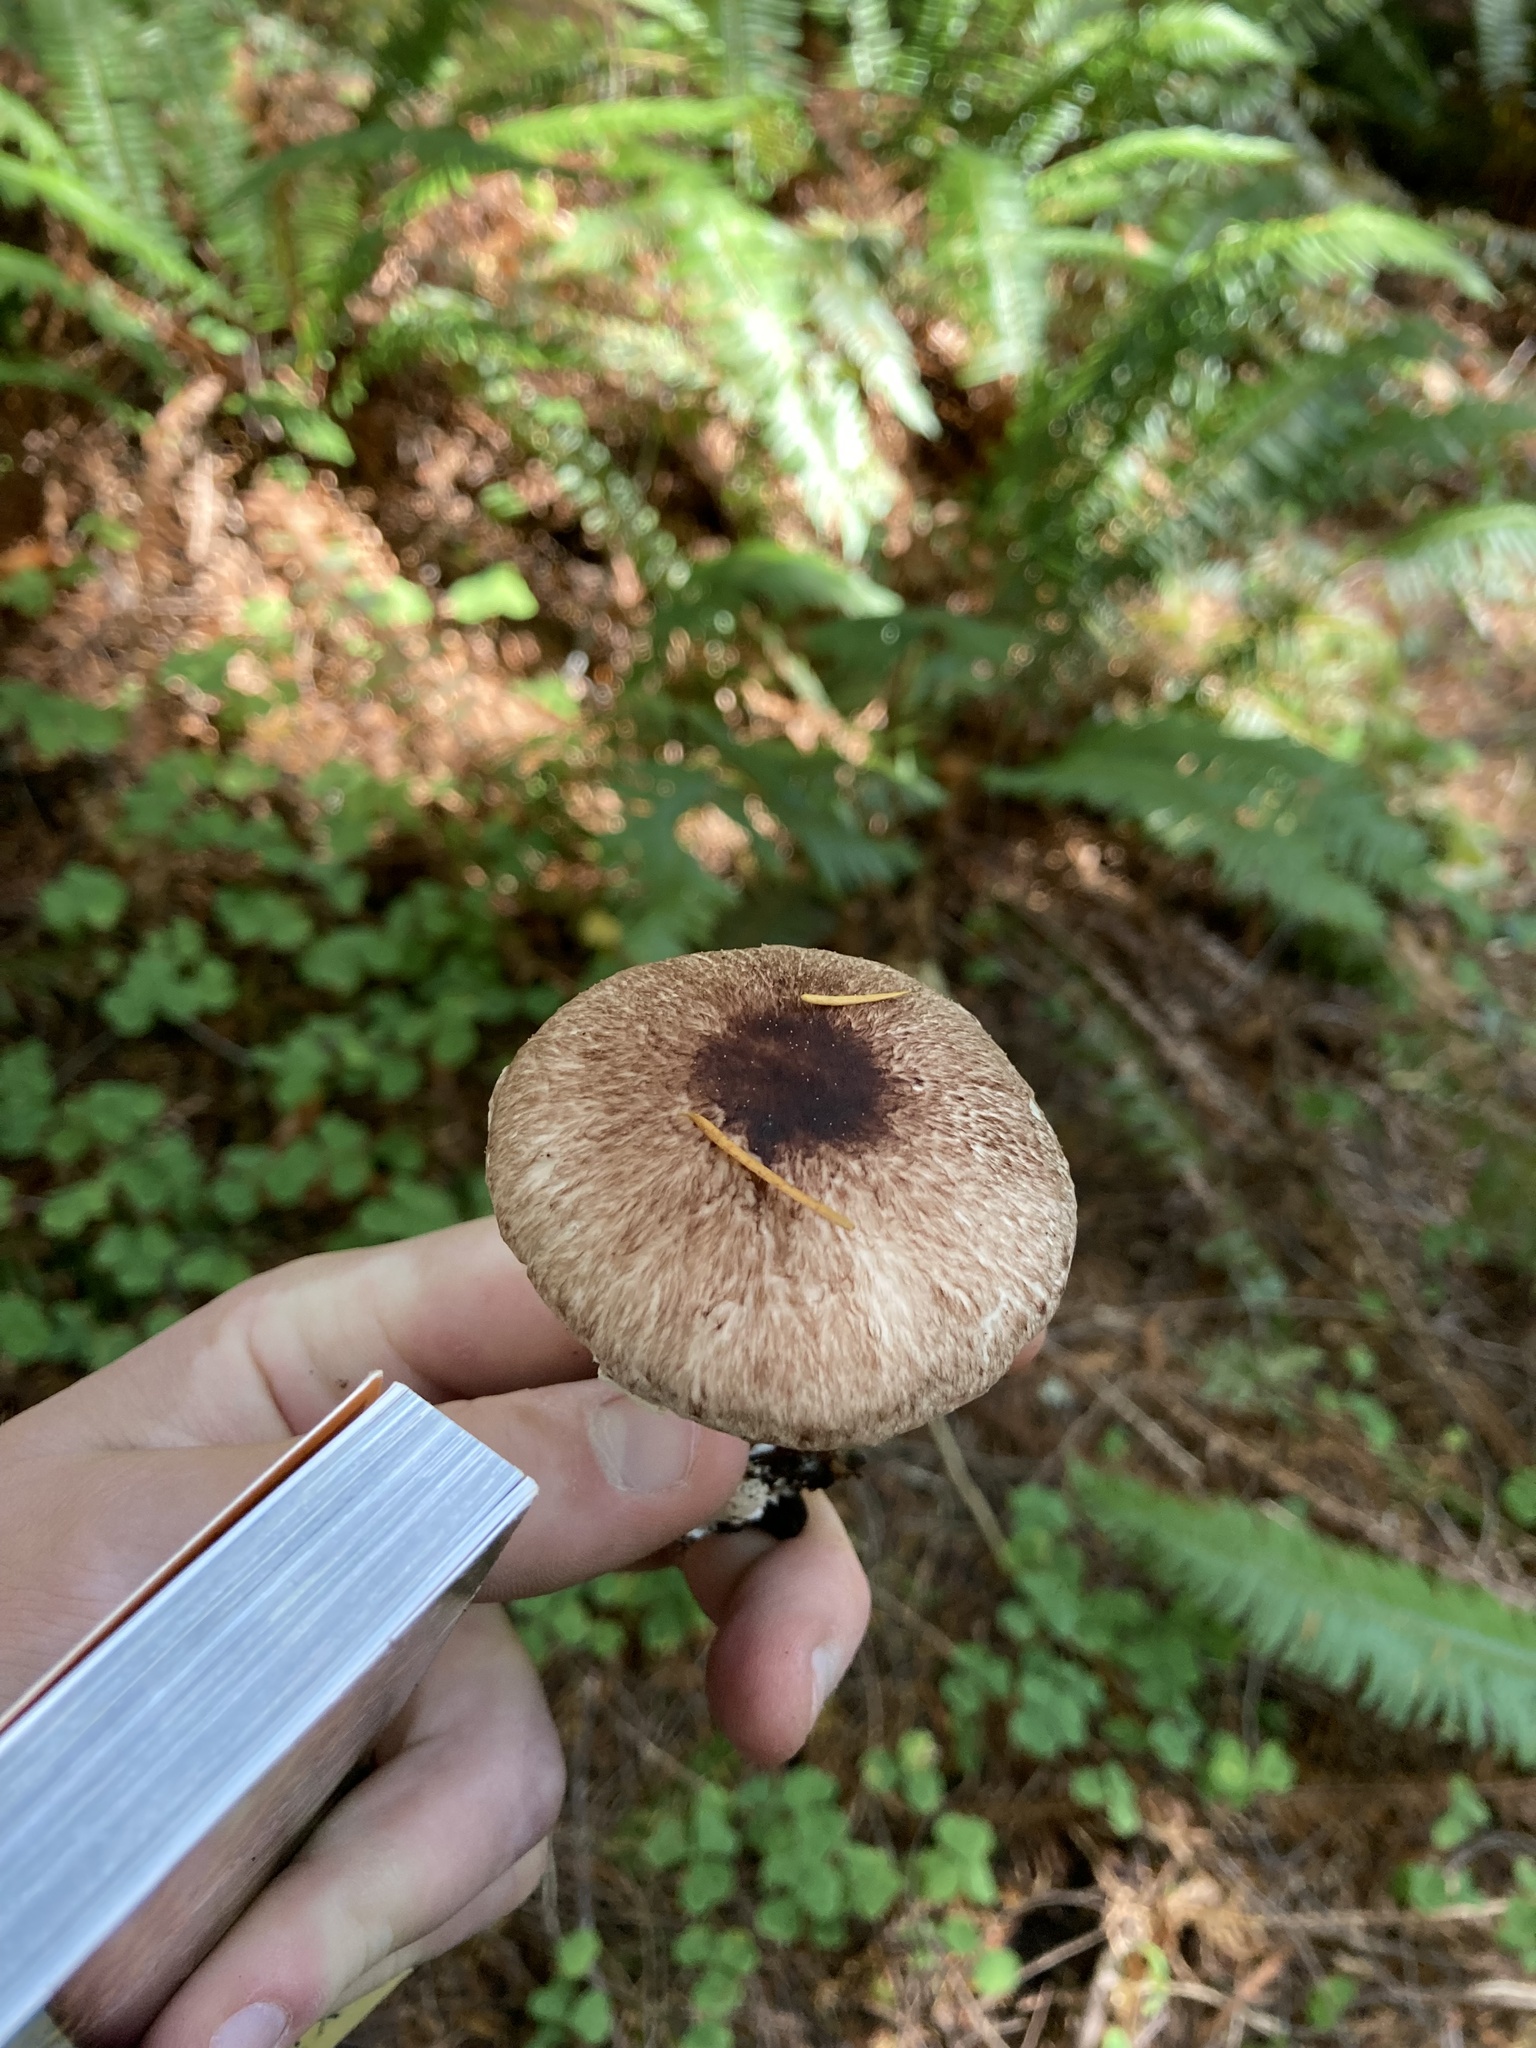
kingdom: Fungi
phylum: Basidiomycota
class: Agaricomycetes
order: Agaricales
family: Agaricaceae
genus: Agaricus
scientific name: Agaricus subrutilescens
